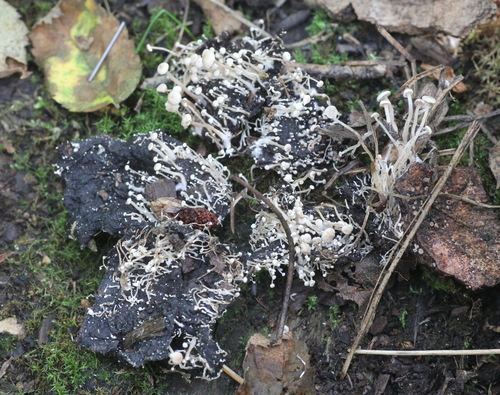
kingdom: Fungi
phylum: Basidiomycota
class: Agaricomycetes
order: Agaricales
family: Tricholomataceae
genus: Collybia
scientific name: Collybia cirrhata
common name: Piggyback shanklet
